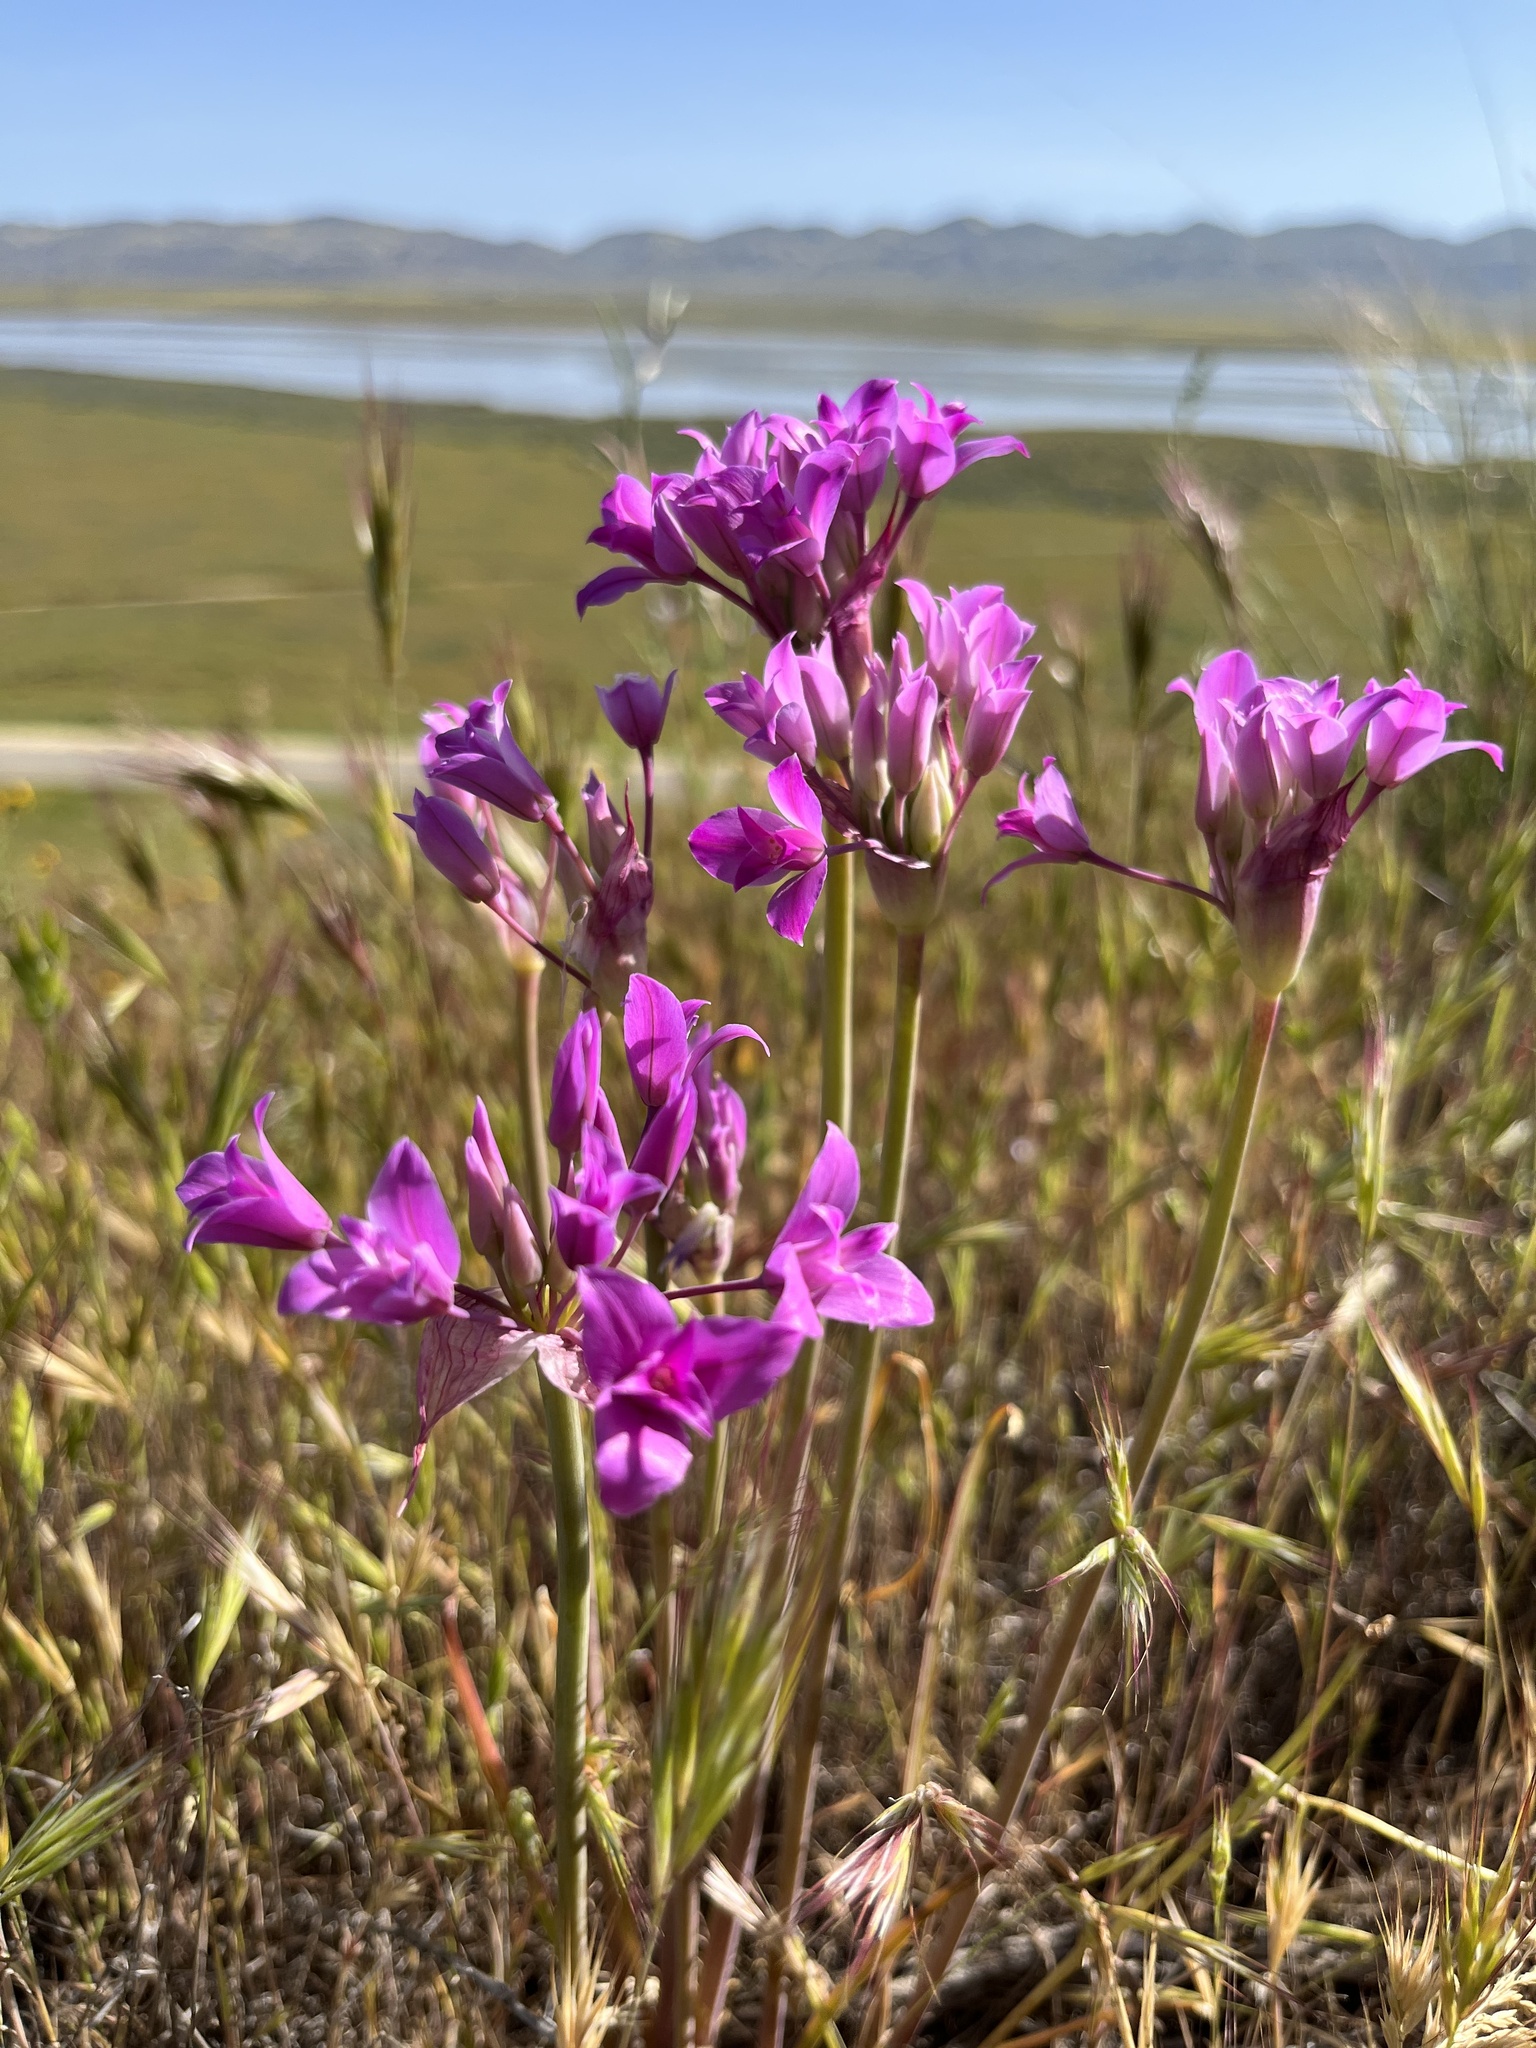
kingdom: Plantae
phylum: Tracheophyta
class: Liliopsida
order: Asparagales
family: Amaryllidaceae
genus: Allium
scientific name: Allium peninsulare
